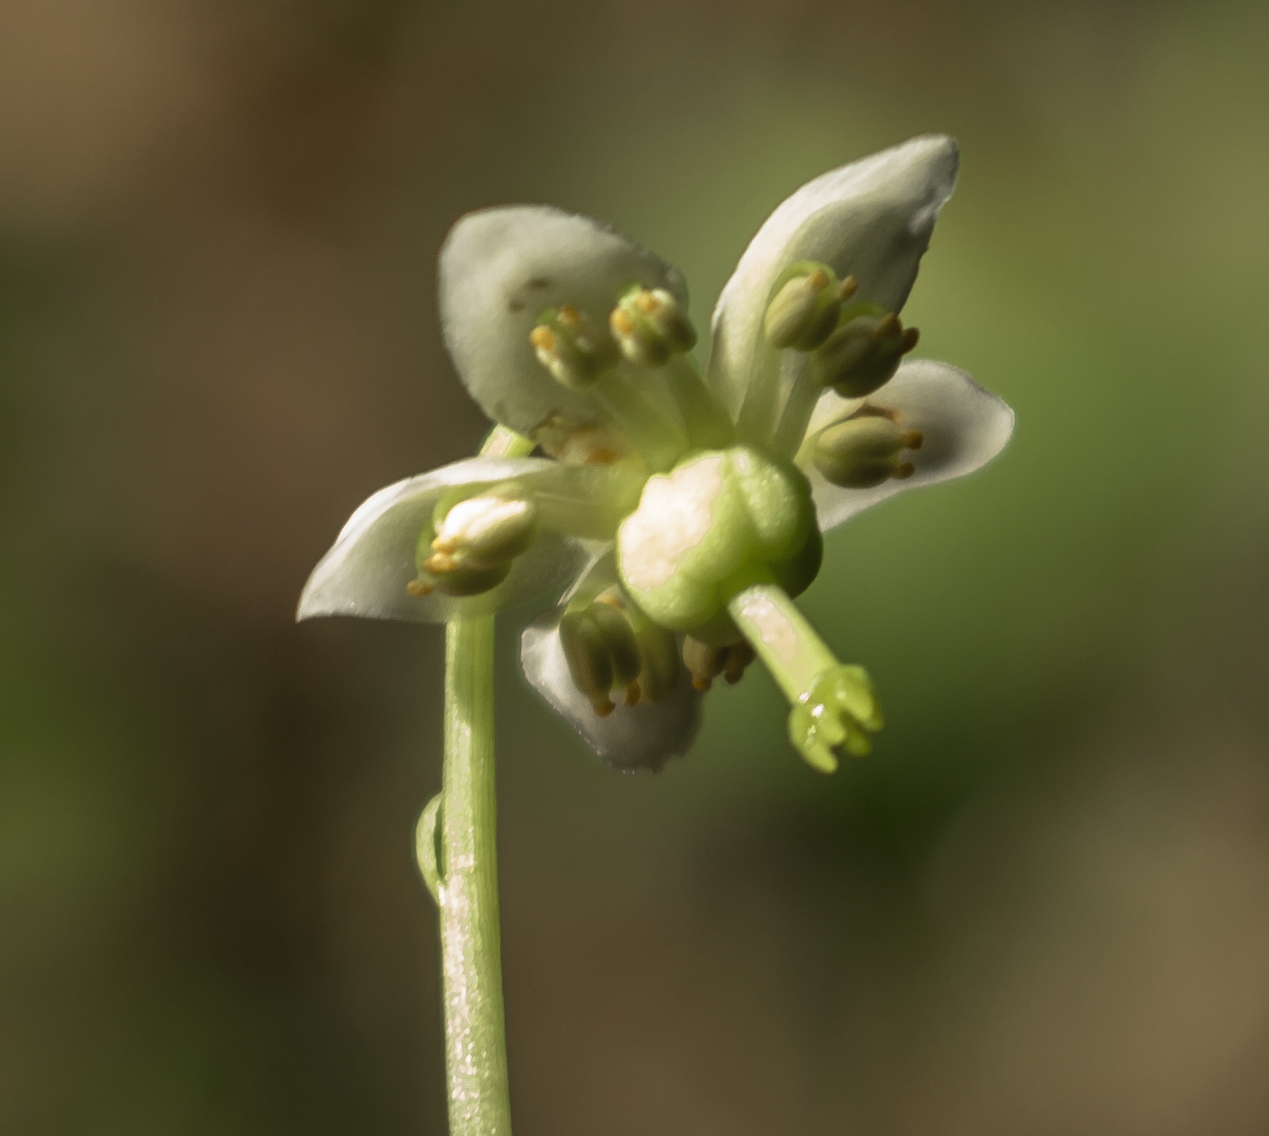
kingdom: Plantae
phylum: Tracheophyta
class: Magnoliopsida
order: Ericales
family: Ericaceae
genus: Moneses
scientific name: Moneses uniflora
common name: One-flowered wintergreen
